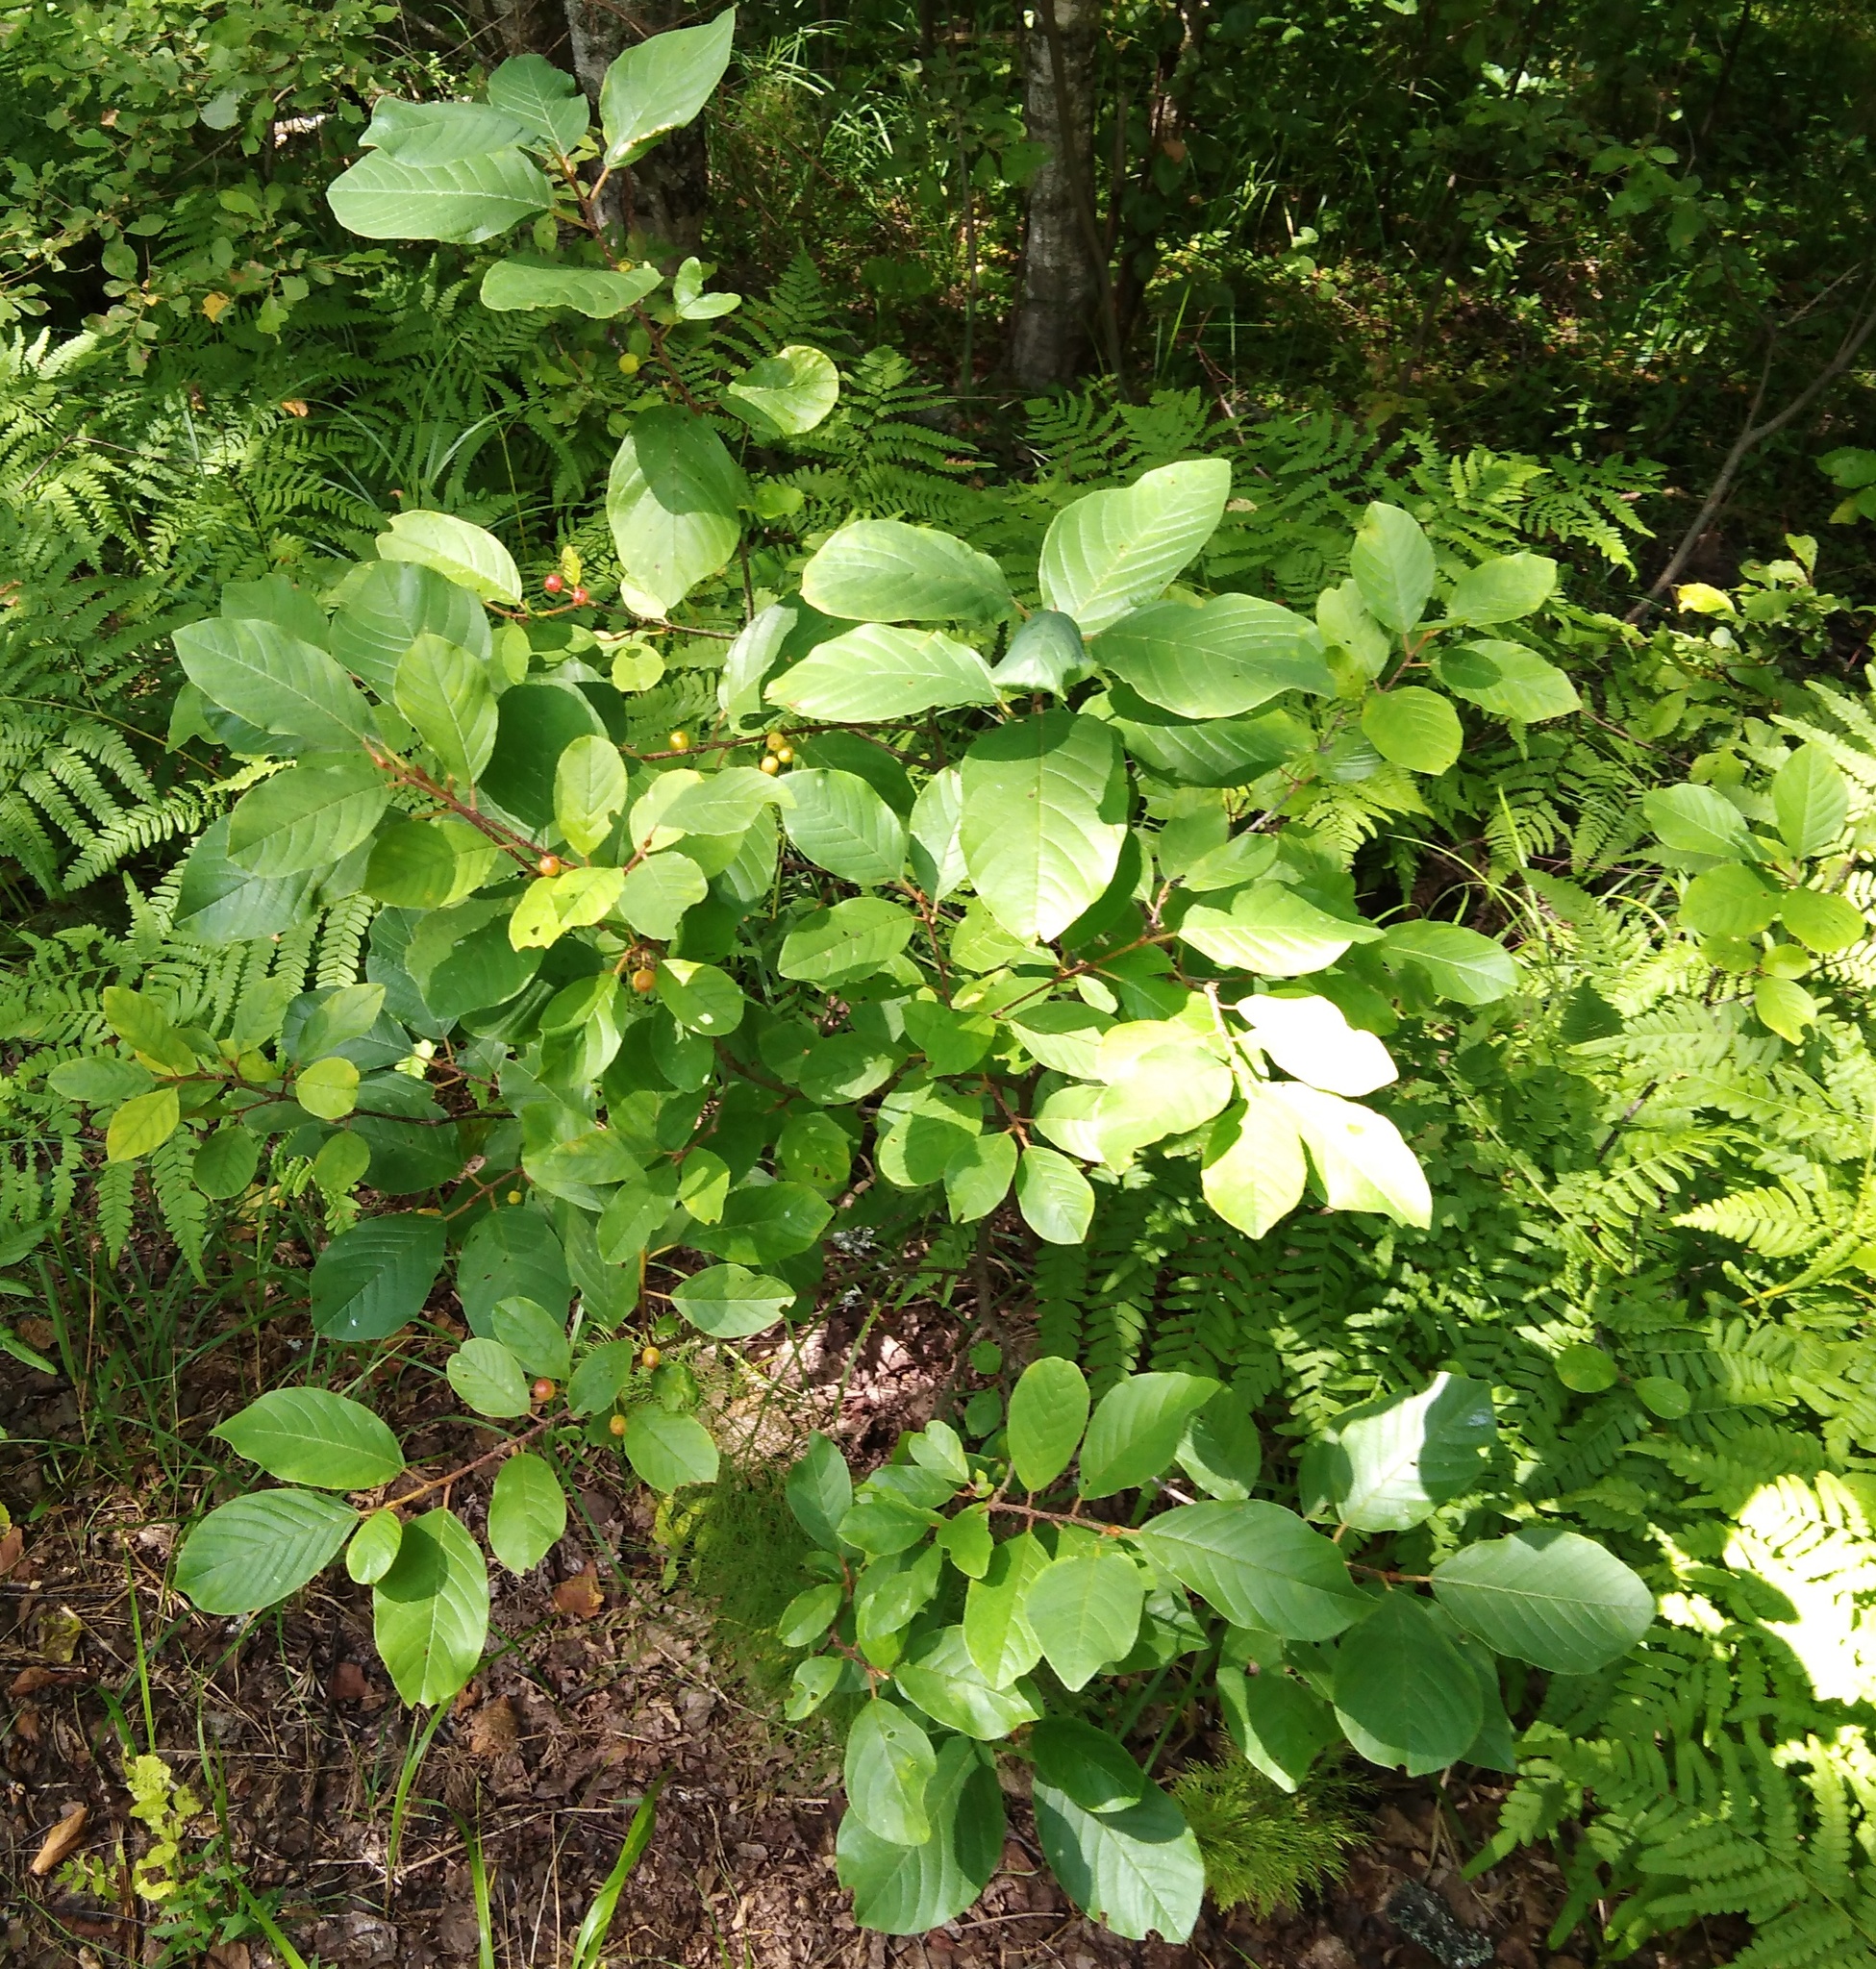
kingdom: Plantae
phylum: Tracheophyta
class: Magnoliopsida
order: Rosales
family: Rhamnaceae
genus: Frangula
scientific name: Frangula alnus
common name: Alder buckthorn
